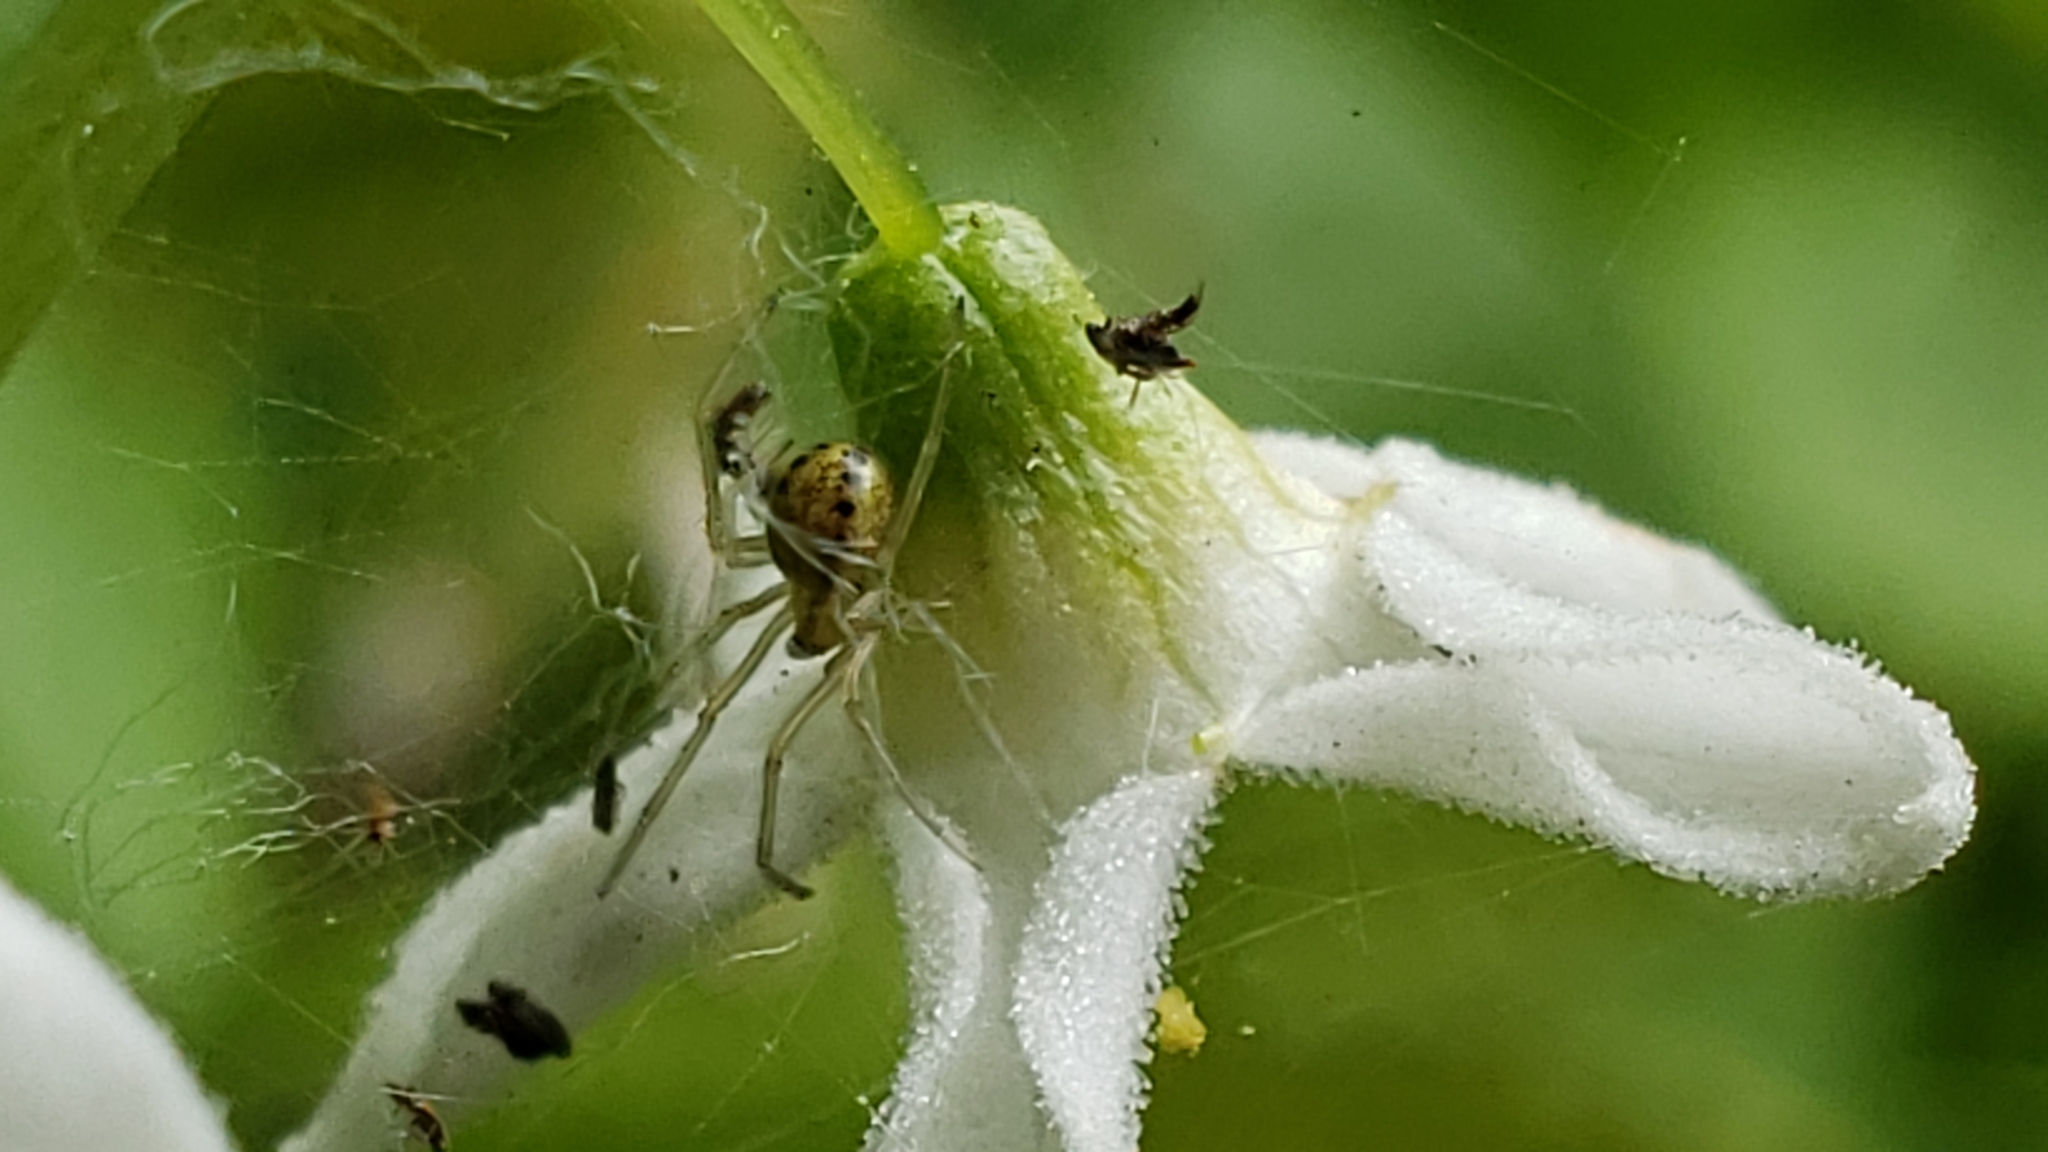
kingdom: Animalia
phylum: Arthropoda
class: Arachnida
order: Araneae
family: Theridiidae
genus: Enoplognatha
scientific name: Enoplognatha ovata
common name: Common candy-striped spider
